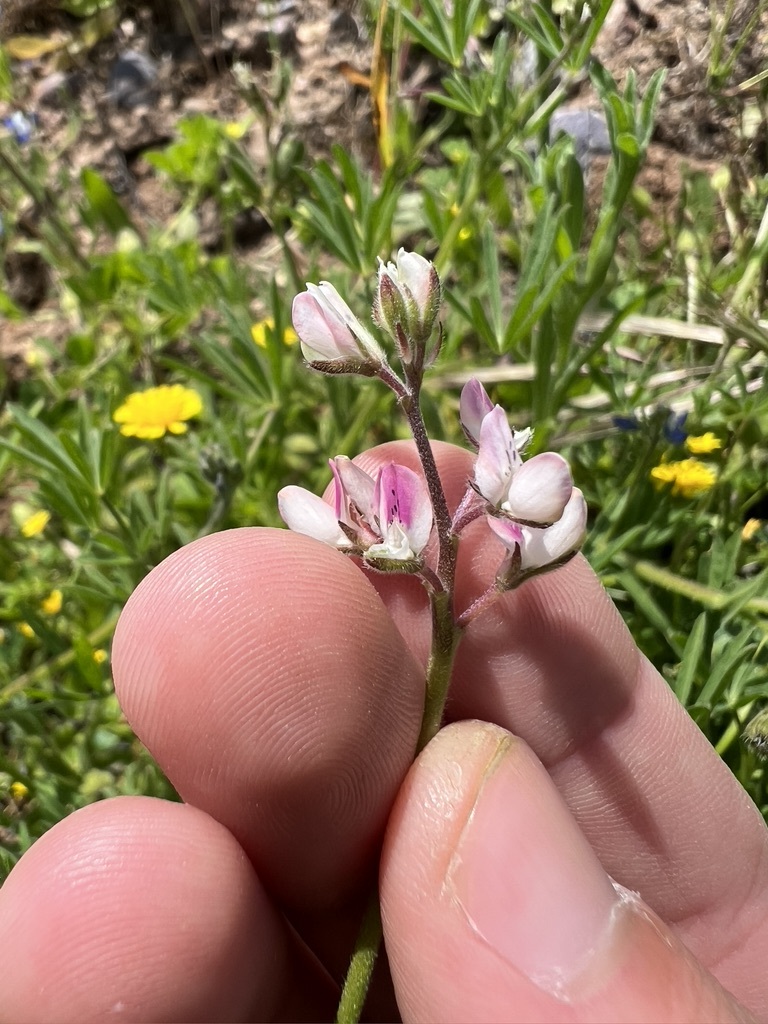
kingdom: Plantae
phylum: Tracheophyta
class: Magnoliopsida
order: Fabales
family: Fabaceae
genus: Lupinus
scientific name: Lupinus bicolor
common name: Miniature lupine
